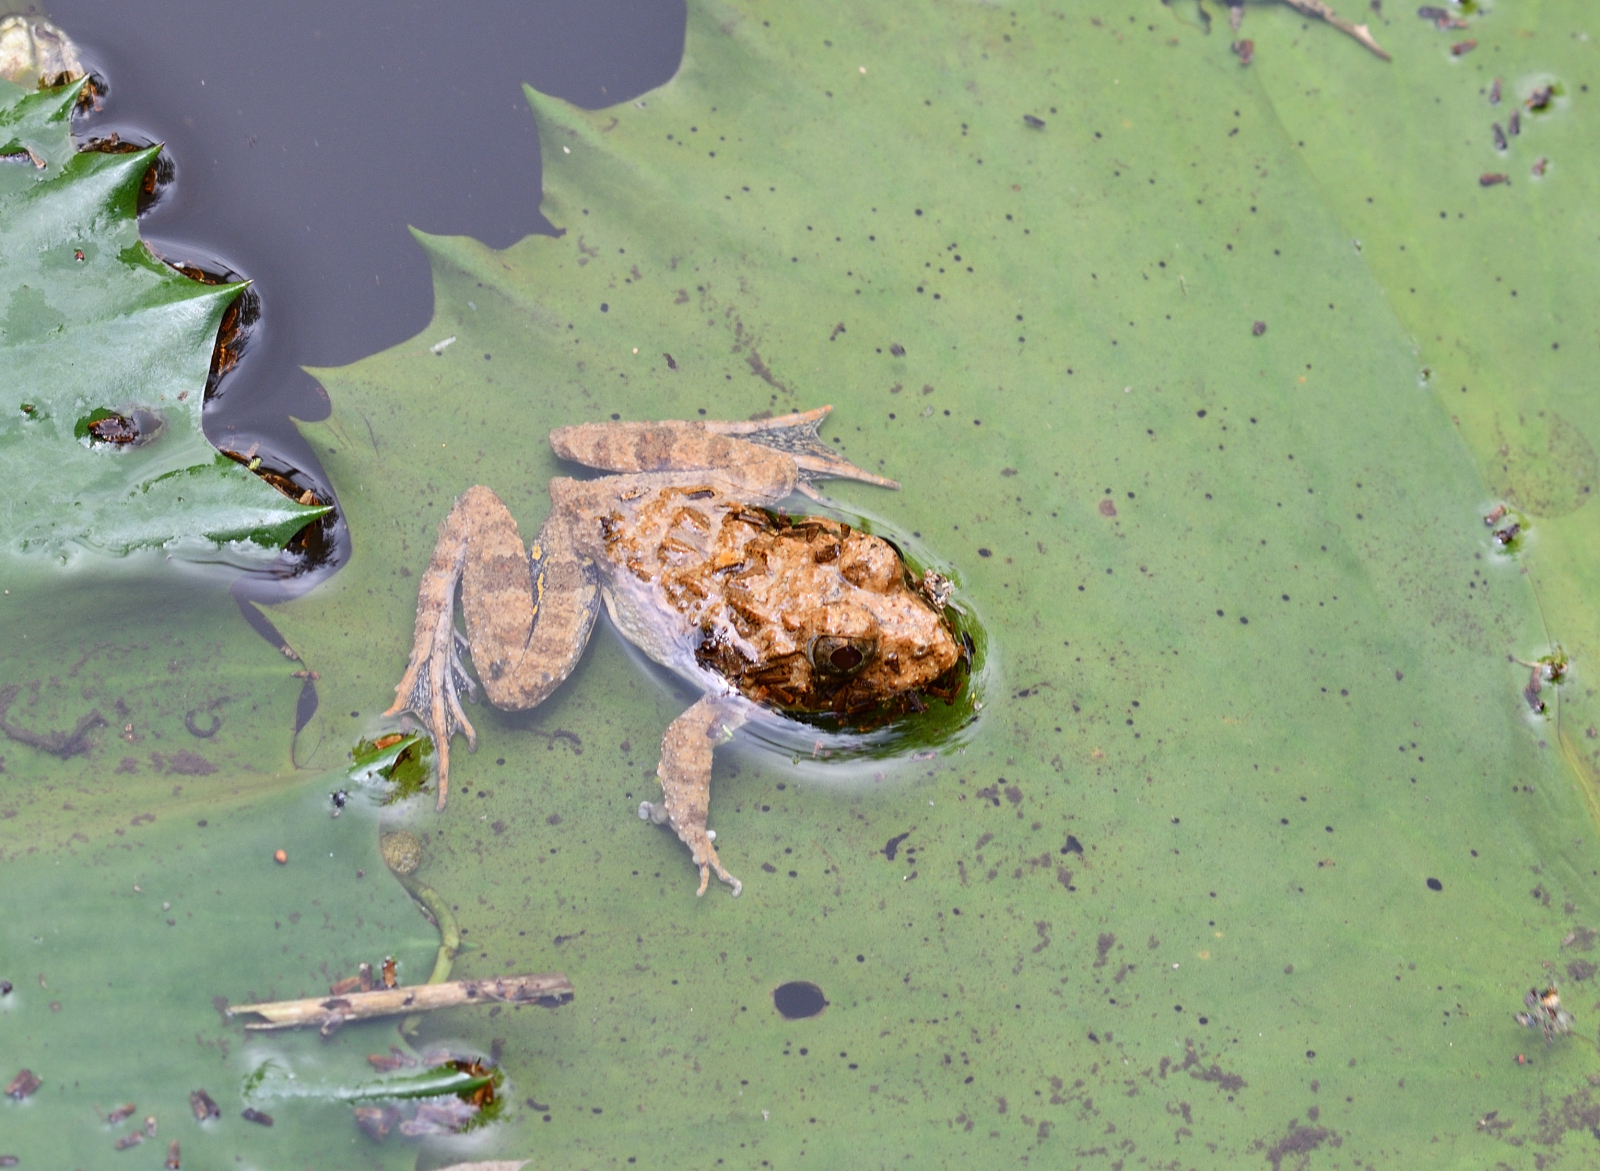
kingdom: Animalia
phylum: Chordata
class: Amphibia
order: Anura
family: Dicroglossidae
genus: Euphlyctis
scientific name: Euphlyctis cyanophlyctis
